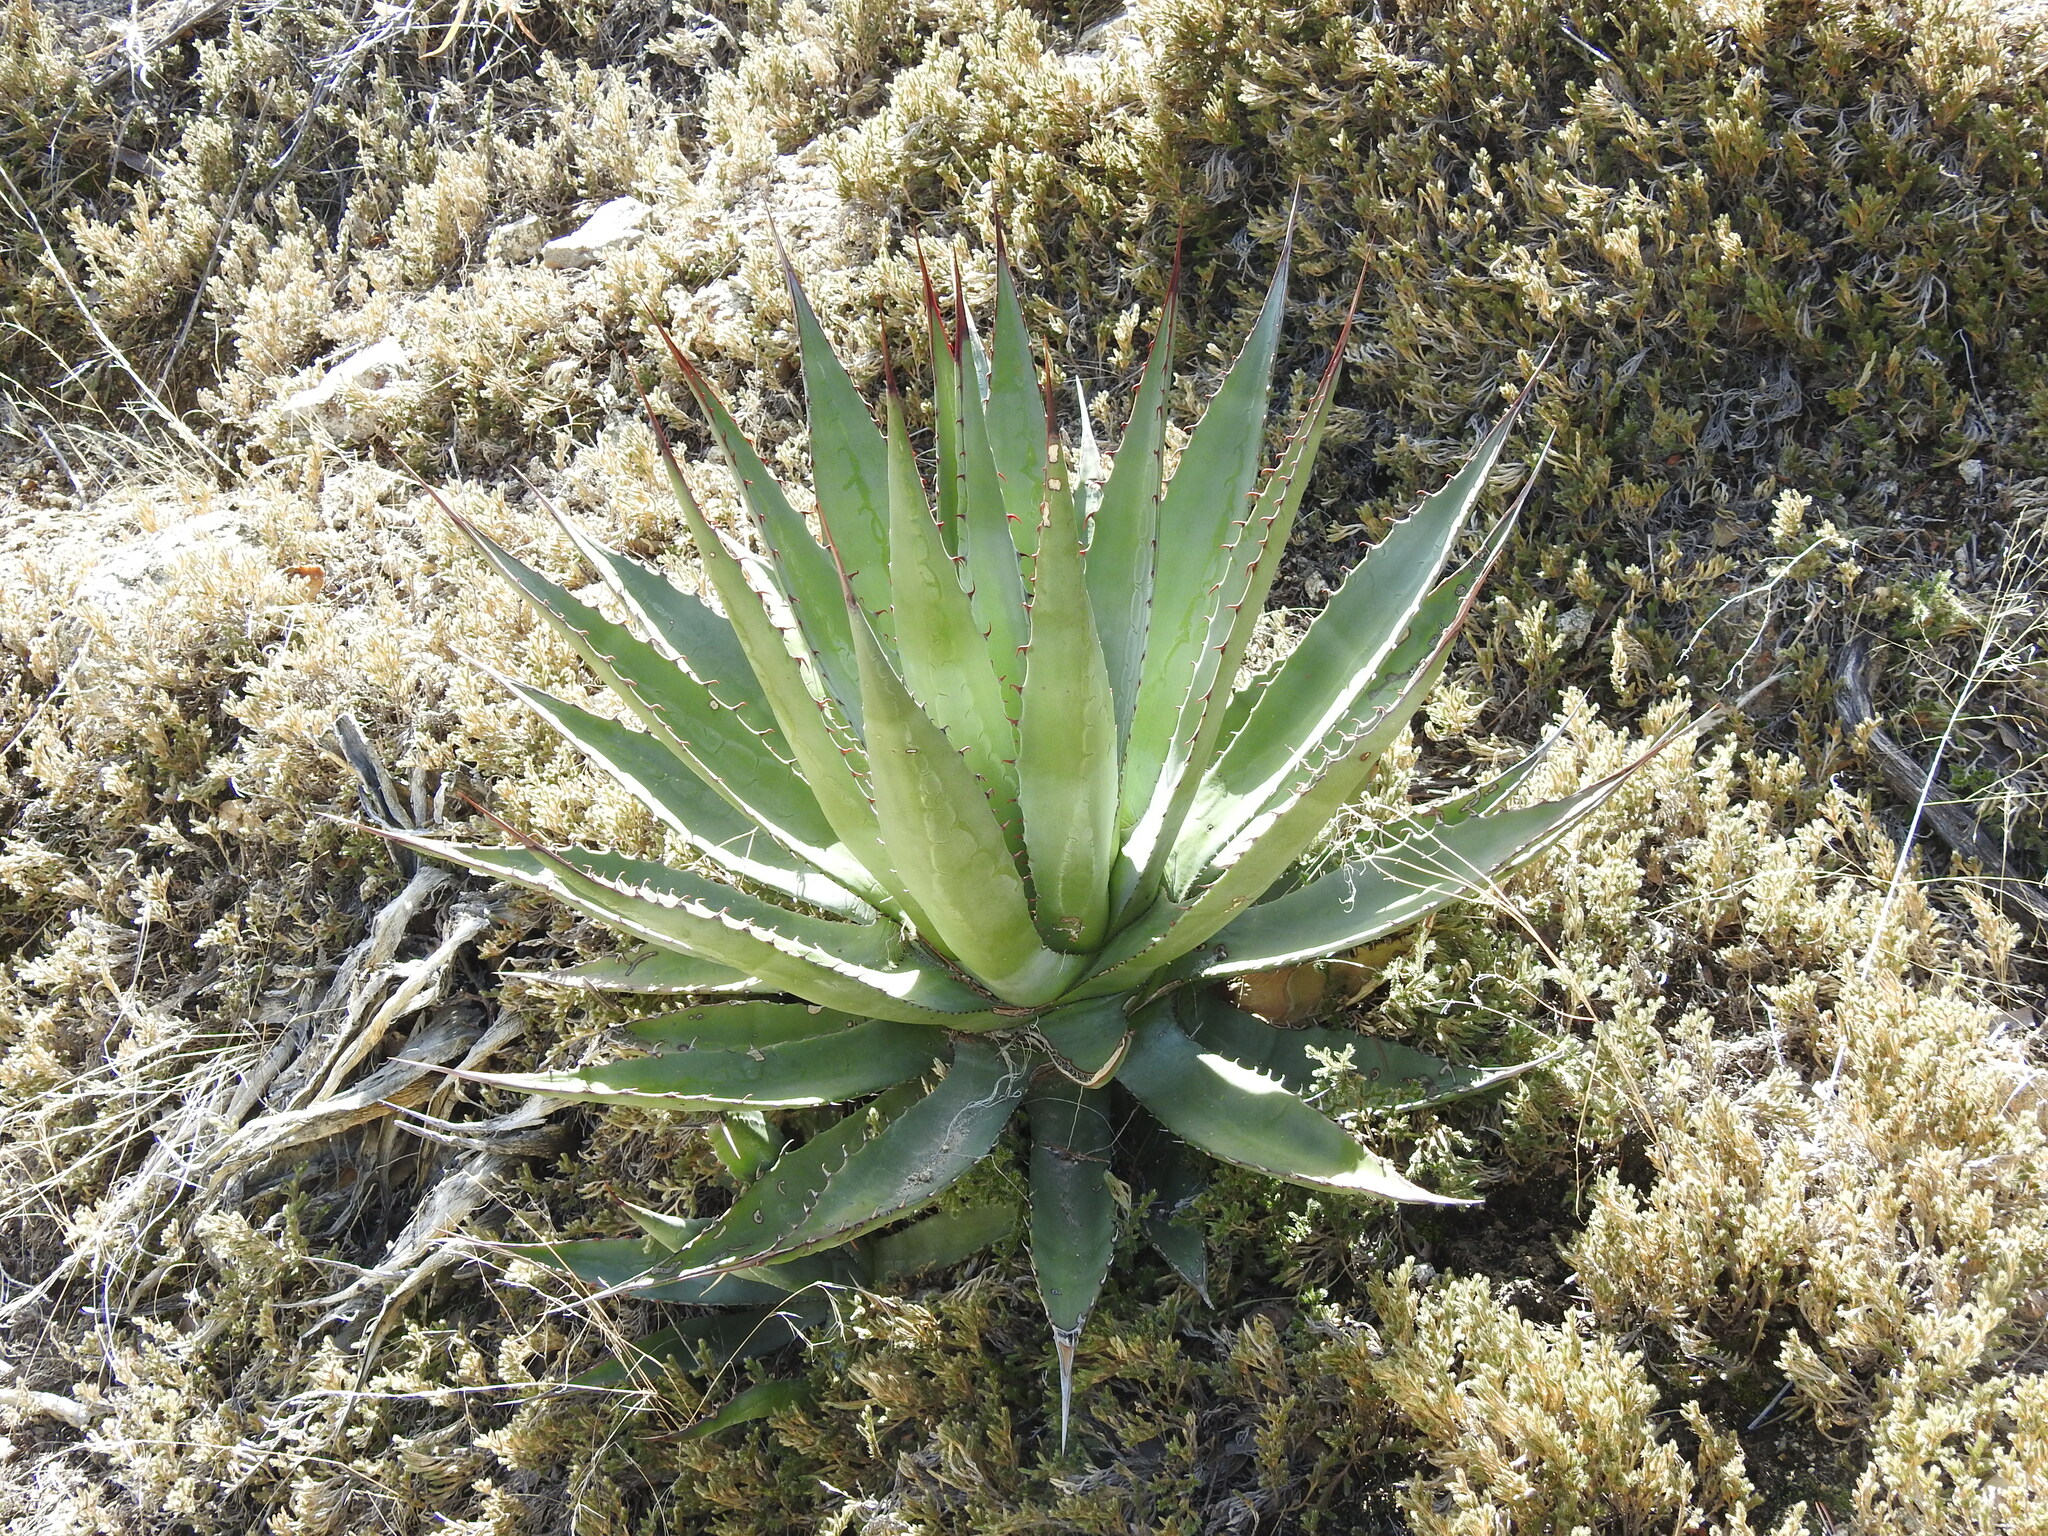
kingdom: Plantae
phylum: Tracheophyta
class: Liliopsida
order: Asparagales
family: Asparagaceae
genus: Agave
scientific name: Agave palmeri
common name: Palmer agave
